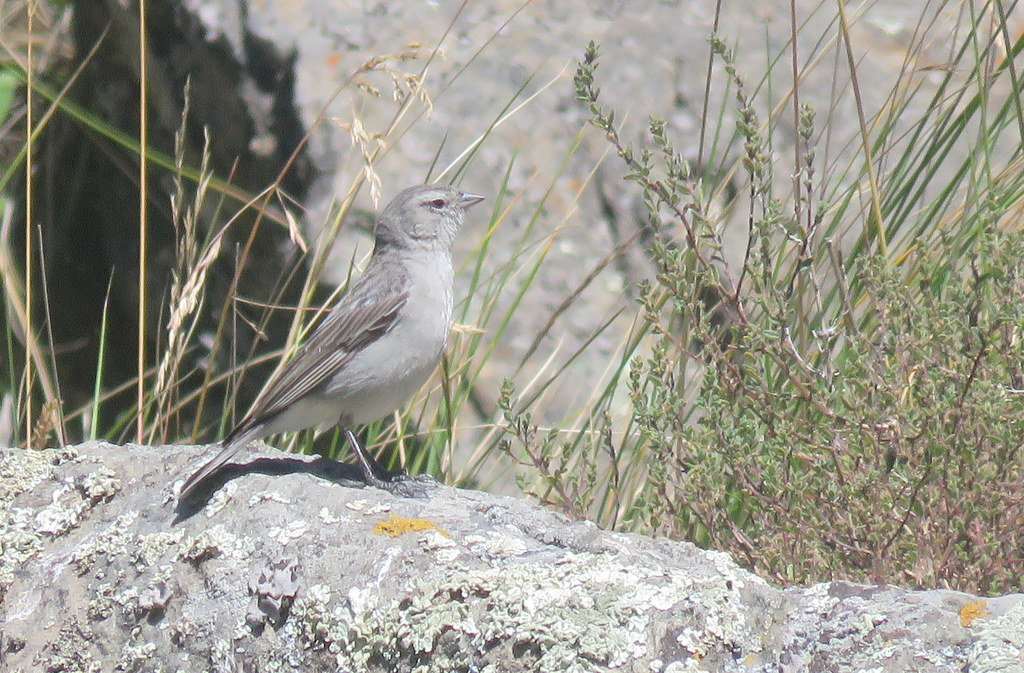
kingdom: Animalia
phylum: Chordata
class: Aves
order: Passeriformes
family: Thraupidae
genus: Geospizopsis
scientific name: Geospizopsis plebejus
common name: Ash-breasted sierra-finch
